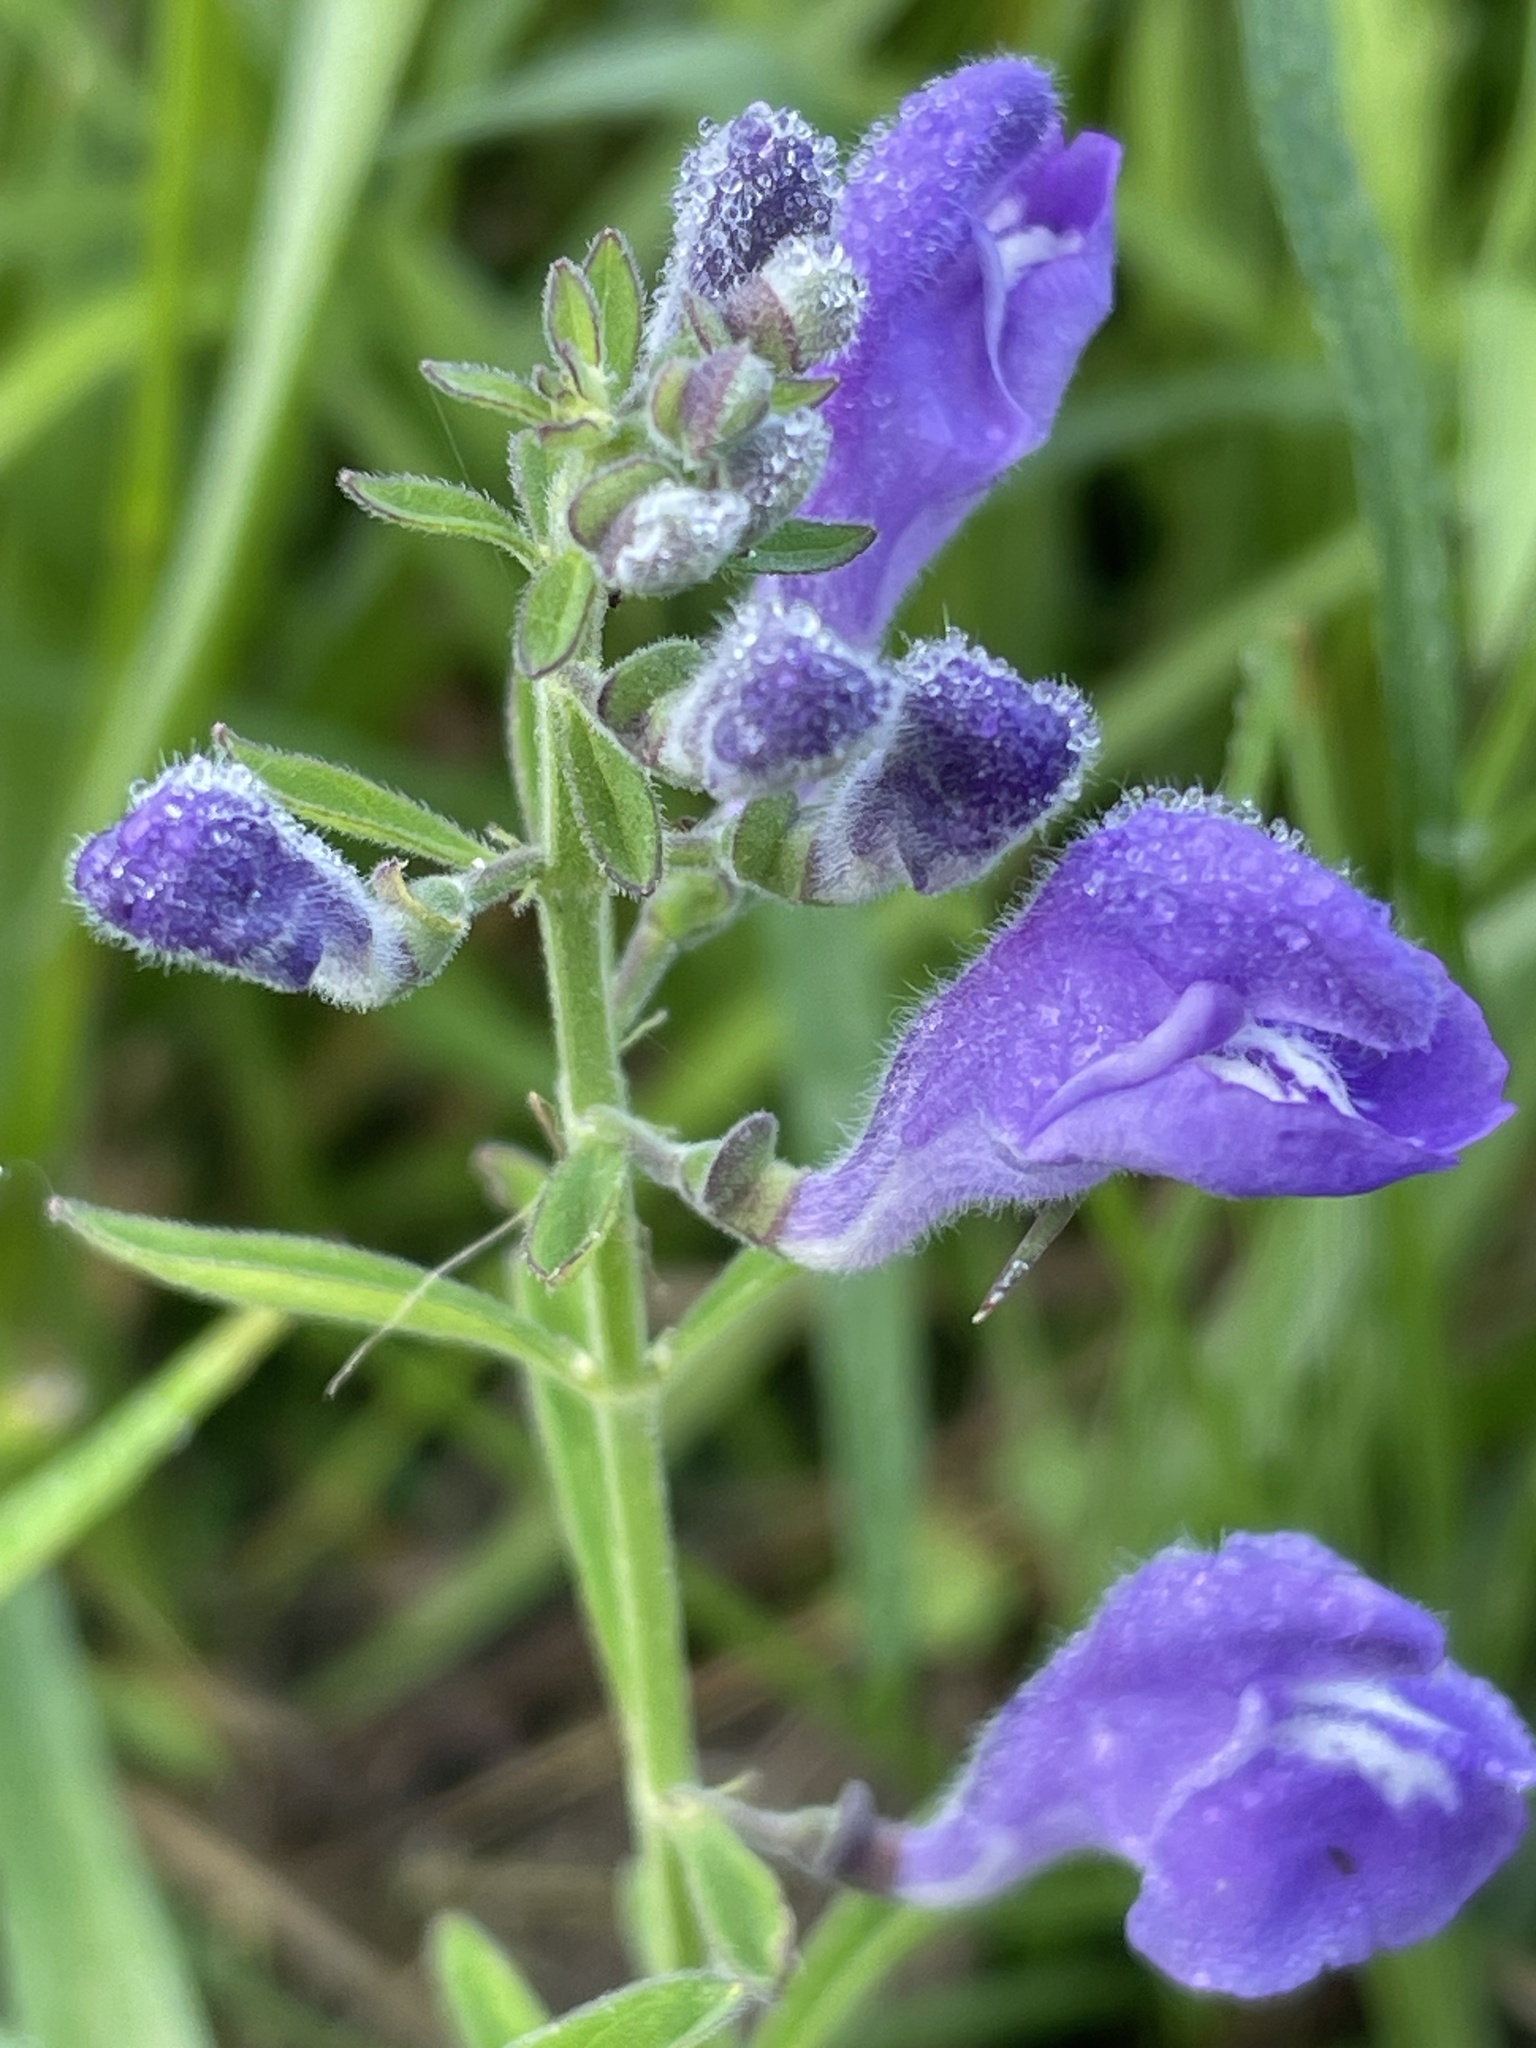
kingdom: Plantae
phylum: Tracheophyta
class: Magnoliopsida
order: Lamiales
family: Lamiaceae
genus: Scutellaria
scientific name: Scutellaria integrifolia
